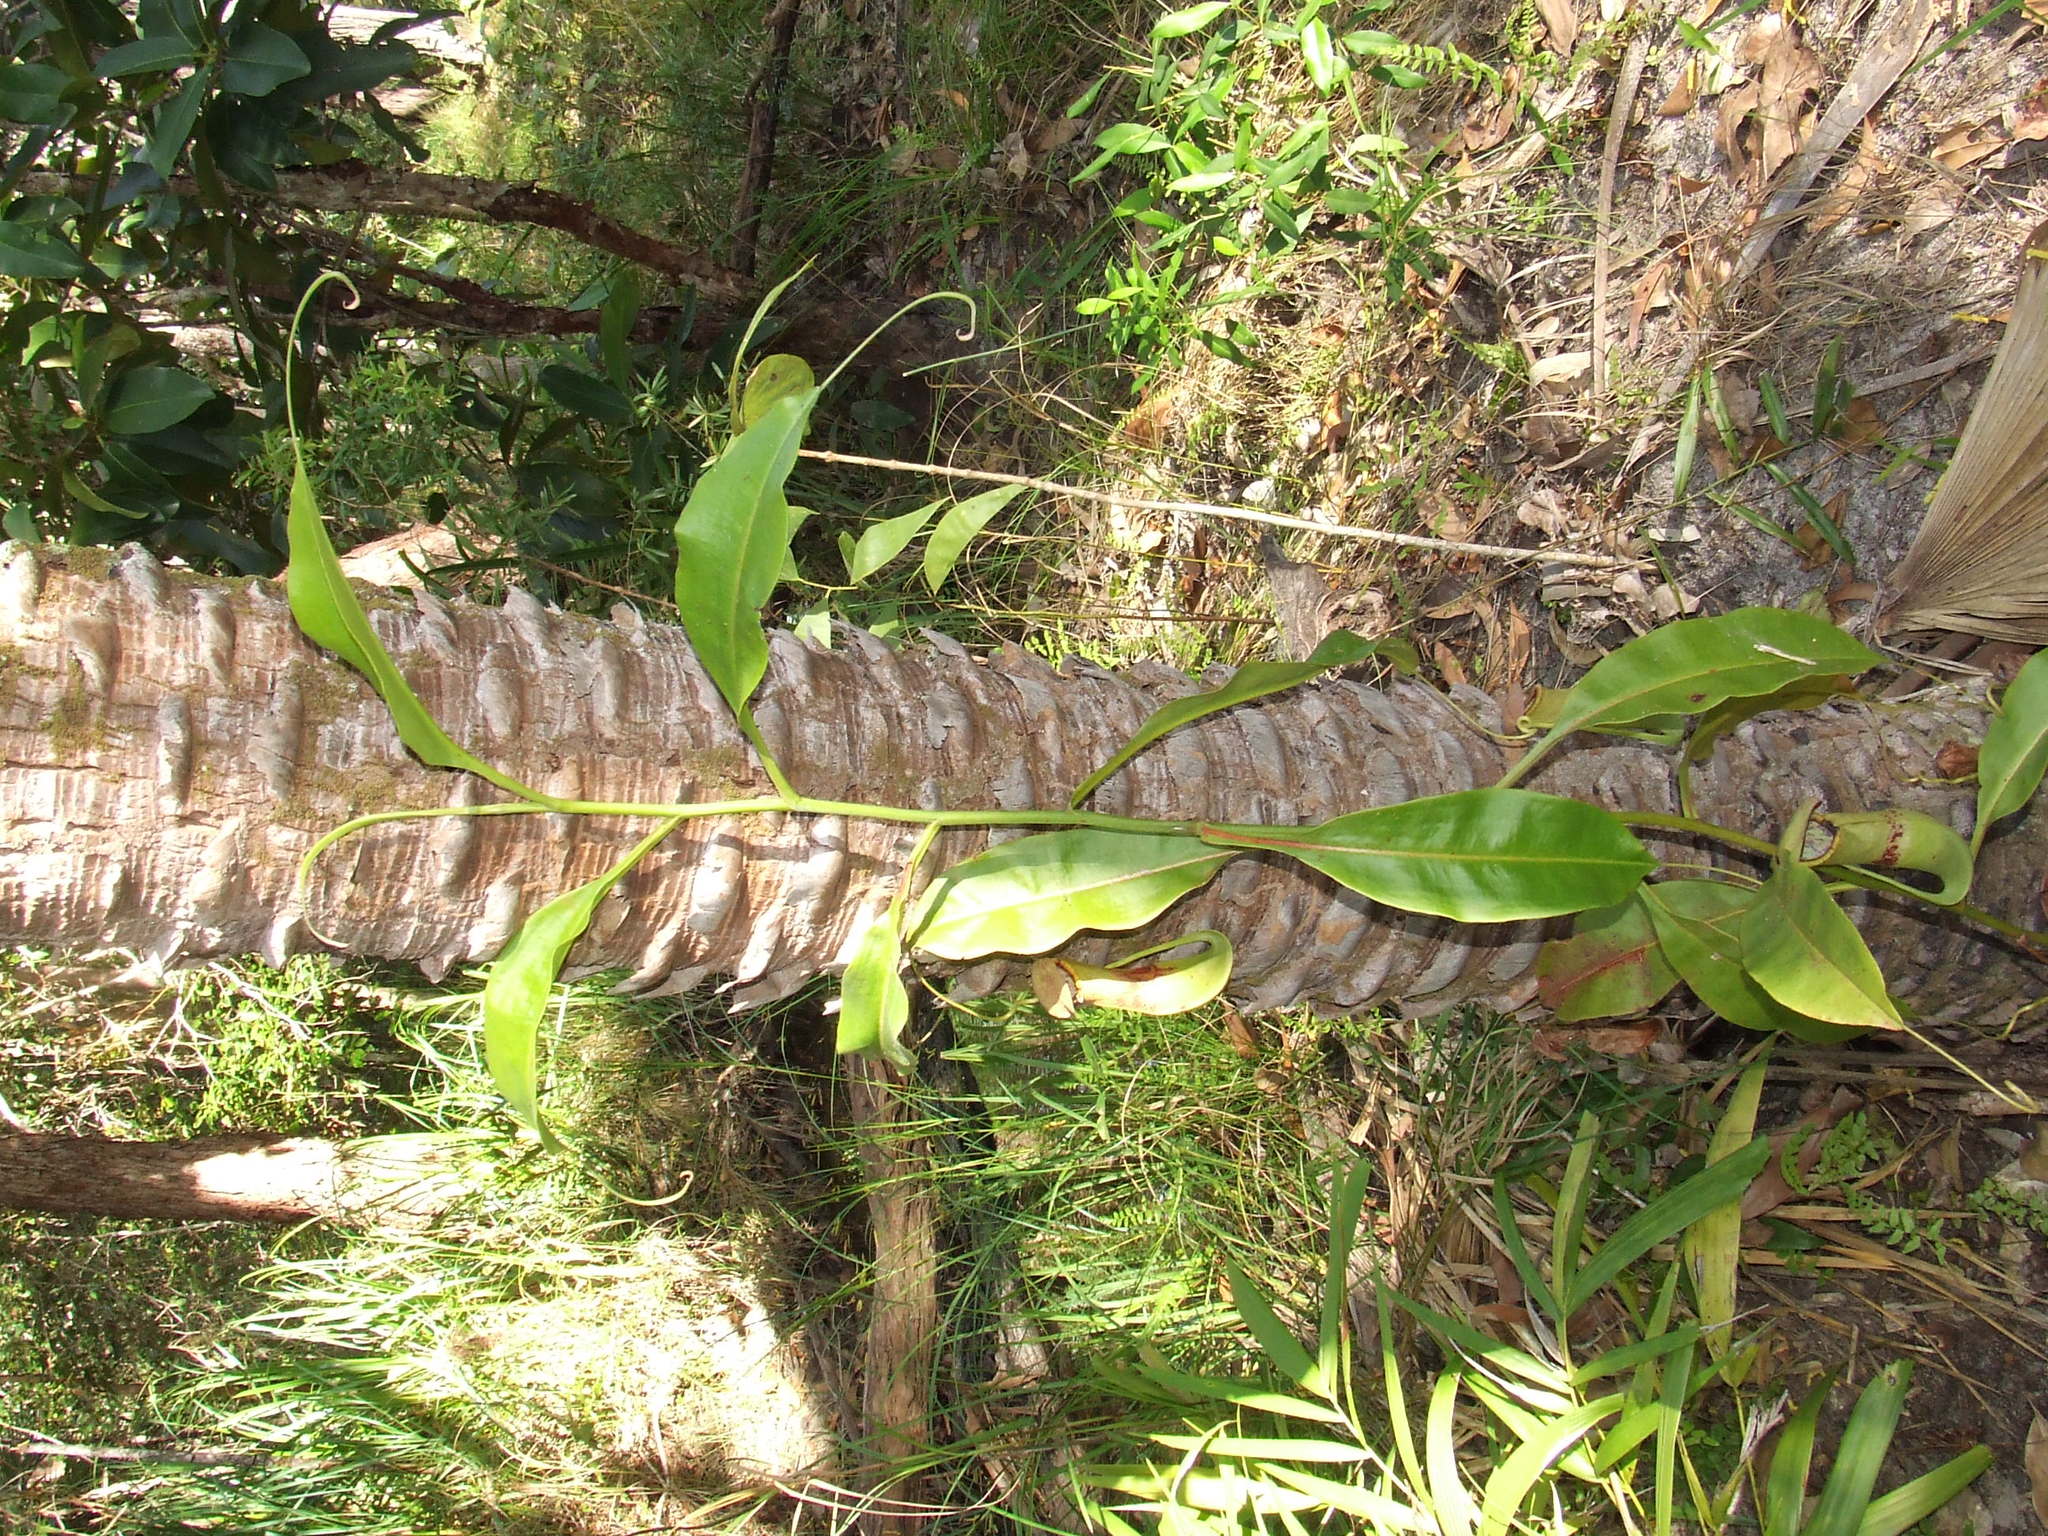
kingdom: Plantae
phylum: Tracheophyta
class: Magnoliopsida
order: Caryophyllales
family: Nepenthaceae
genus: Nepenthes
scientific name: Nepenthes mirabilis
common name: Tropical pitcherplant
